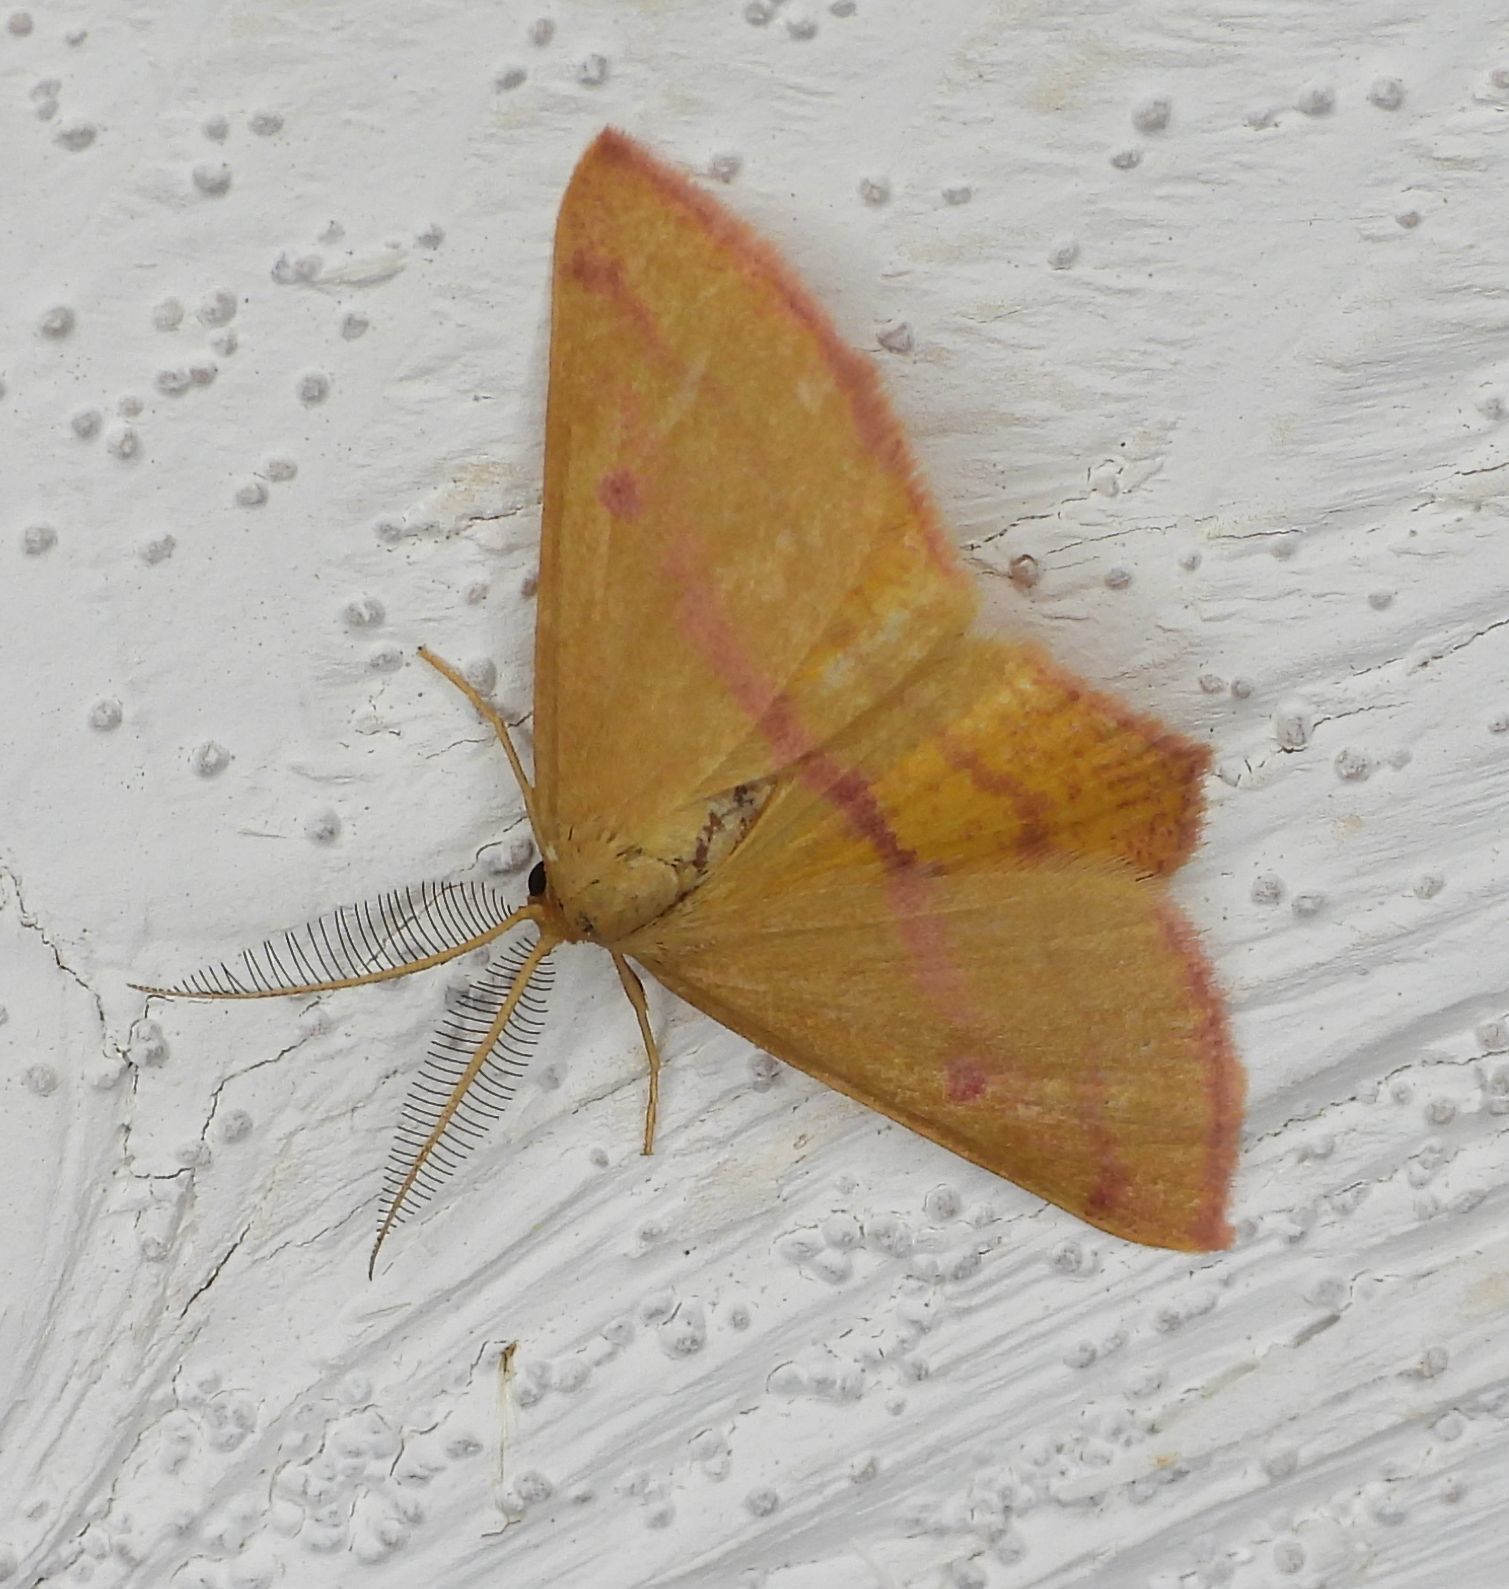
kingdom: Animalia
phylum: Arthropoda
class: Insecta
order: Lepidoptera
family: Geometridae
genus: Haematopis
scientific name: Haematopis grataria
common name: Chickweed geometer
